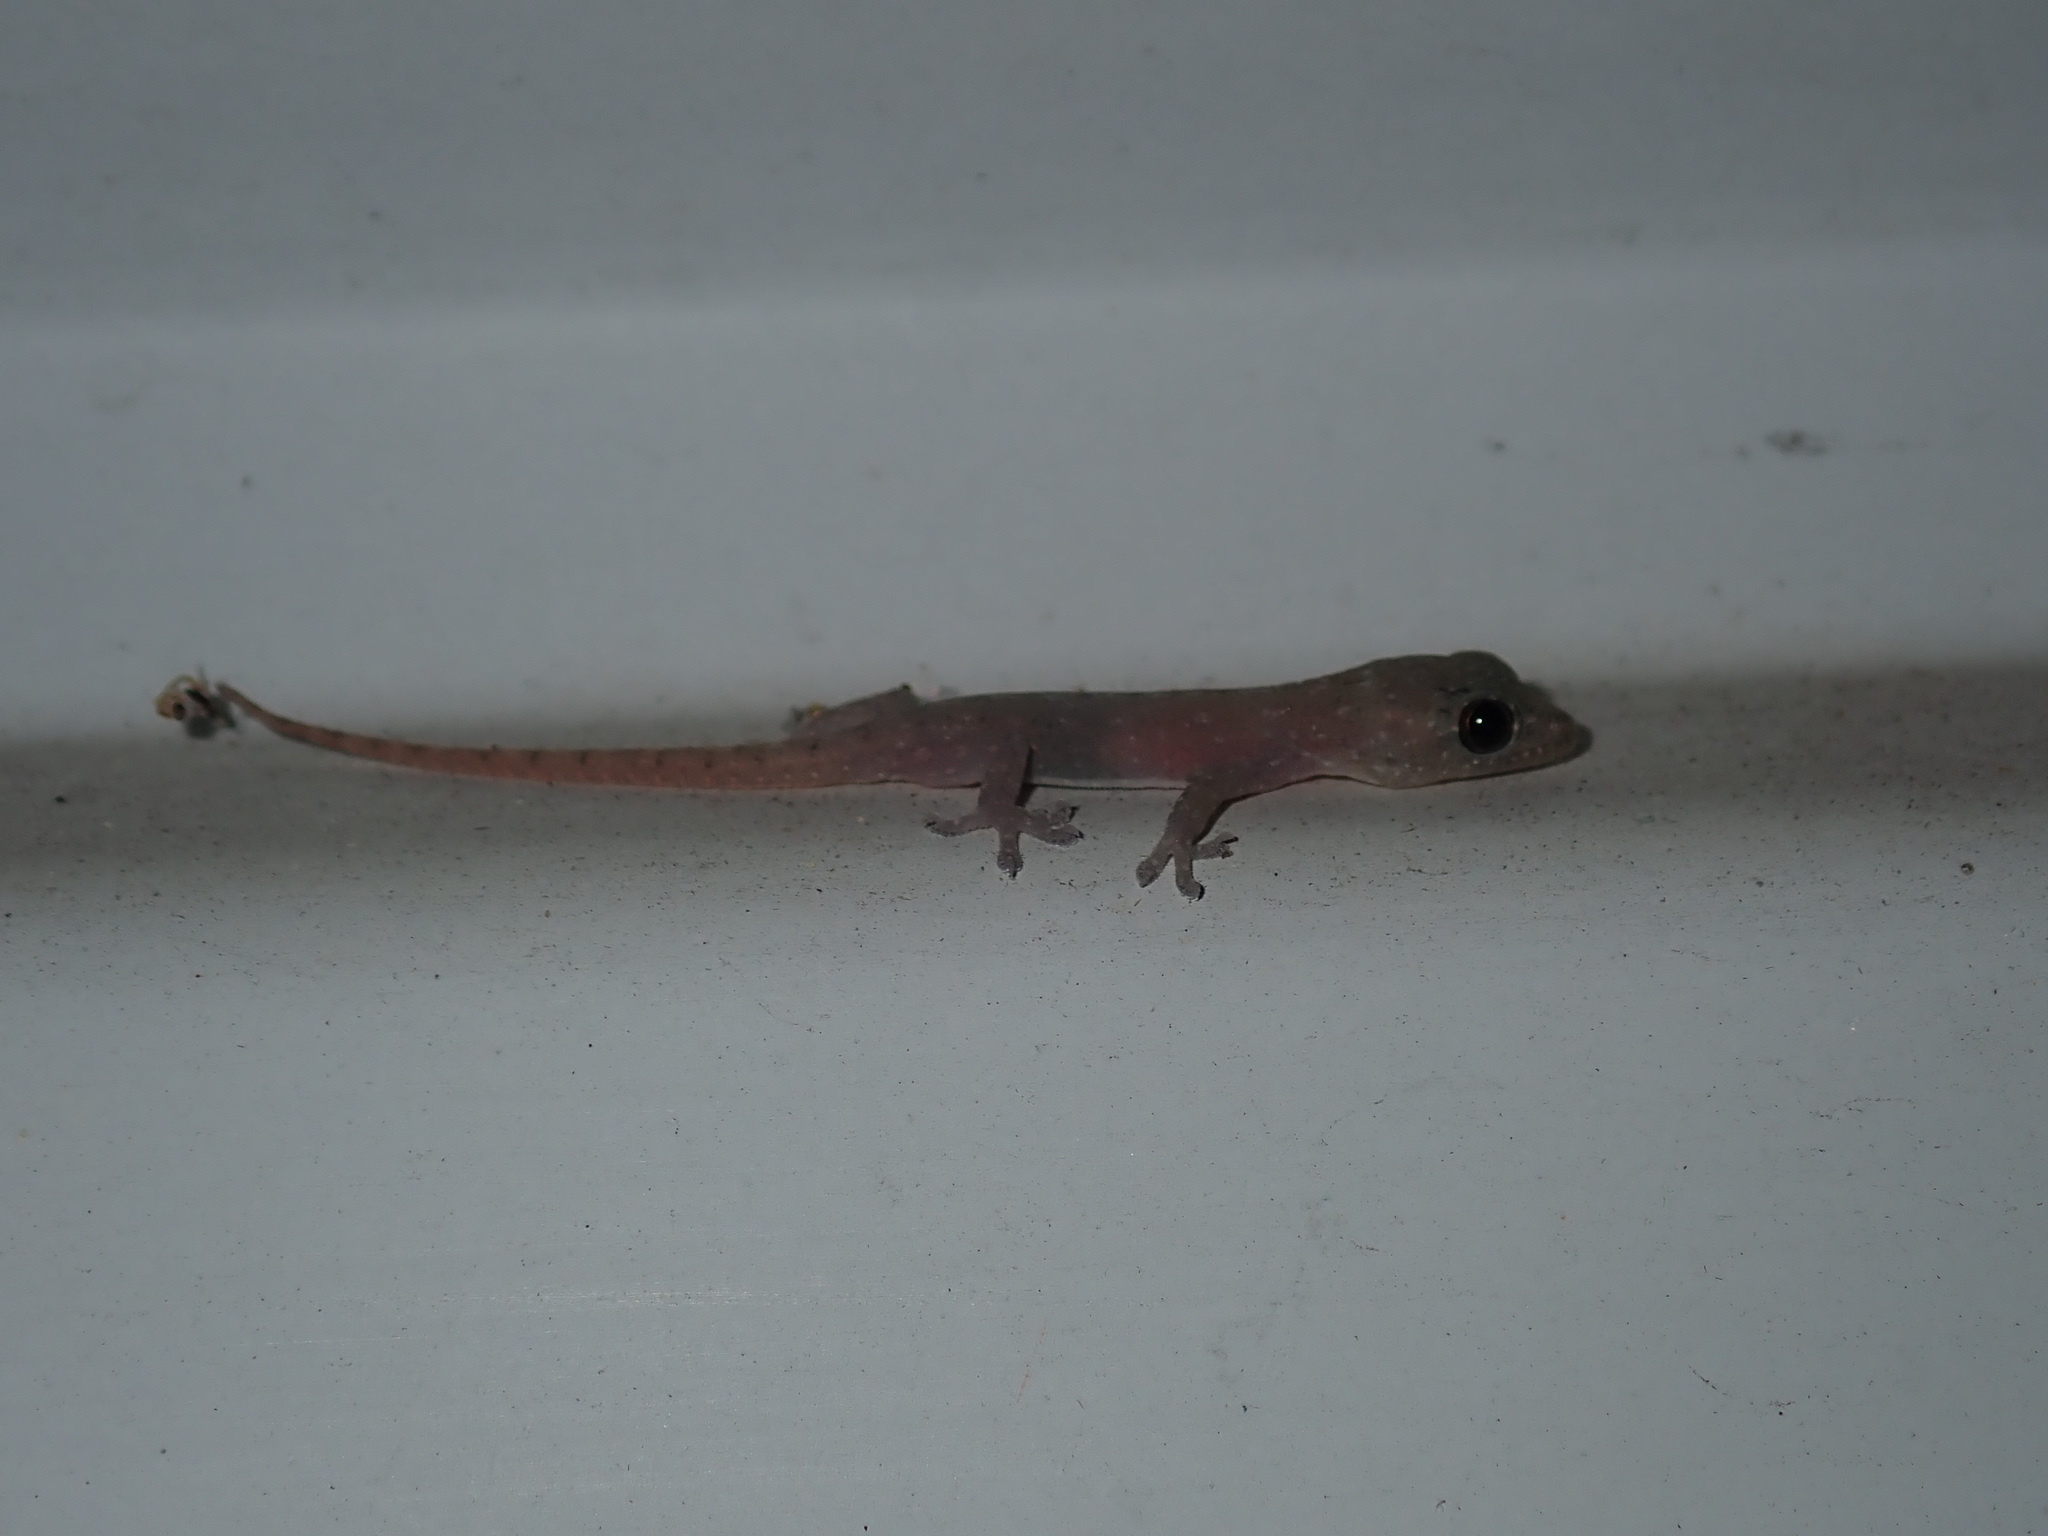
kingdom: Animalia
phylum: Chordata
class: Squamata
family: Gekkonidae
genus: Hemidactylus
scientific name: Hemidactylus frenatus
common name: Common house gecko
